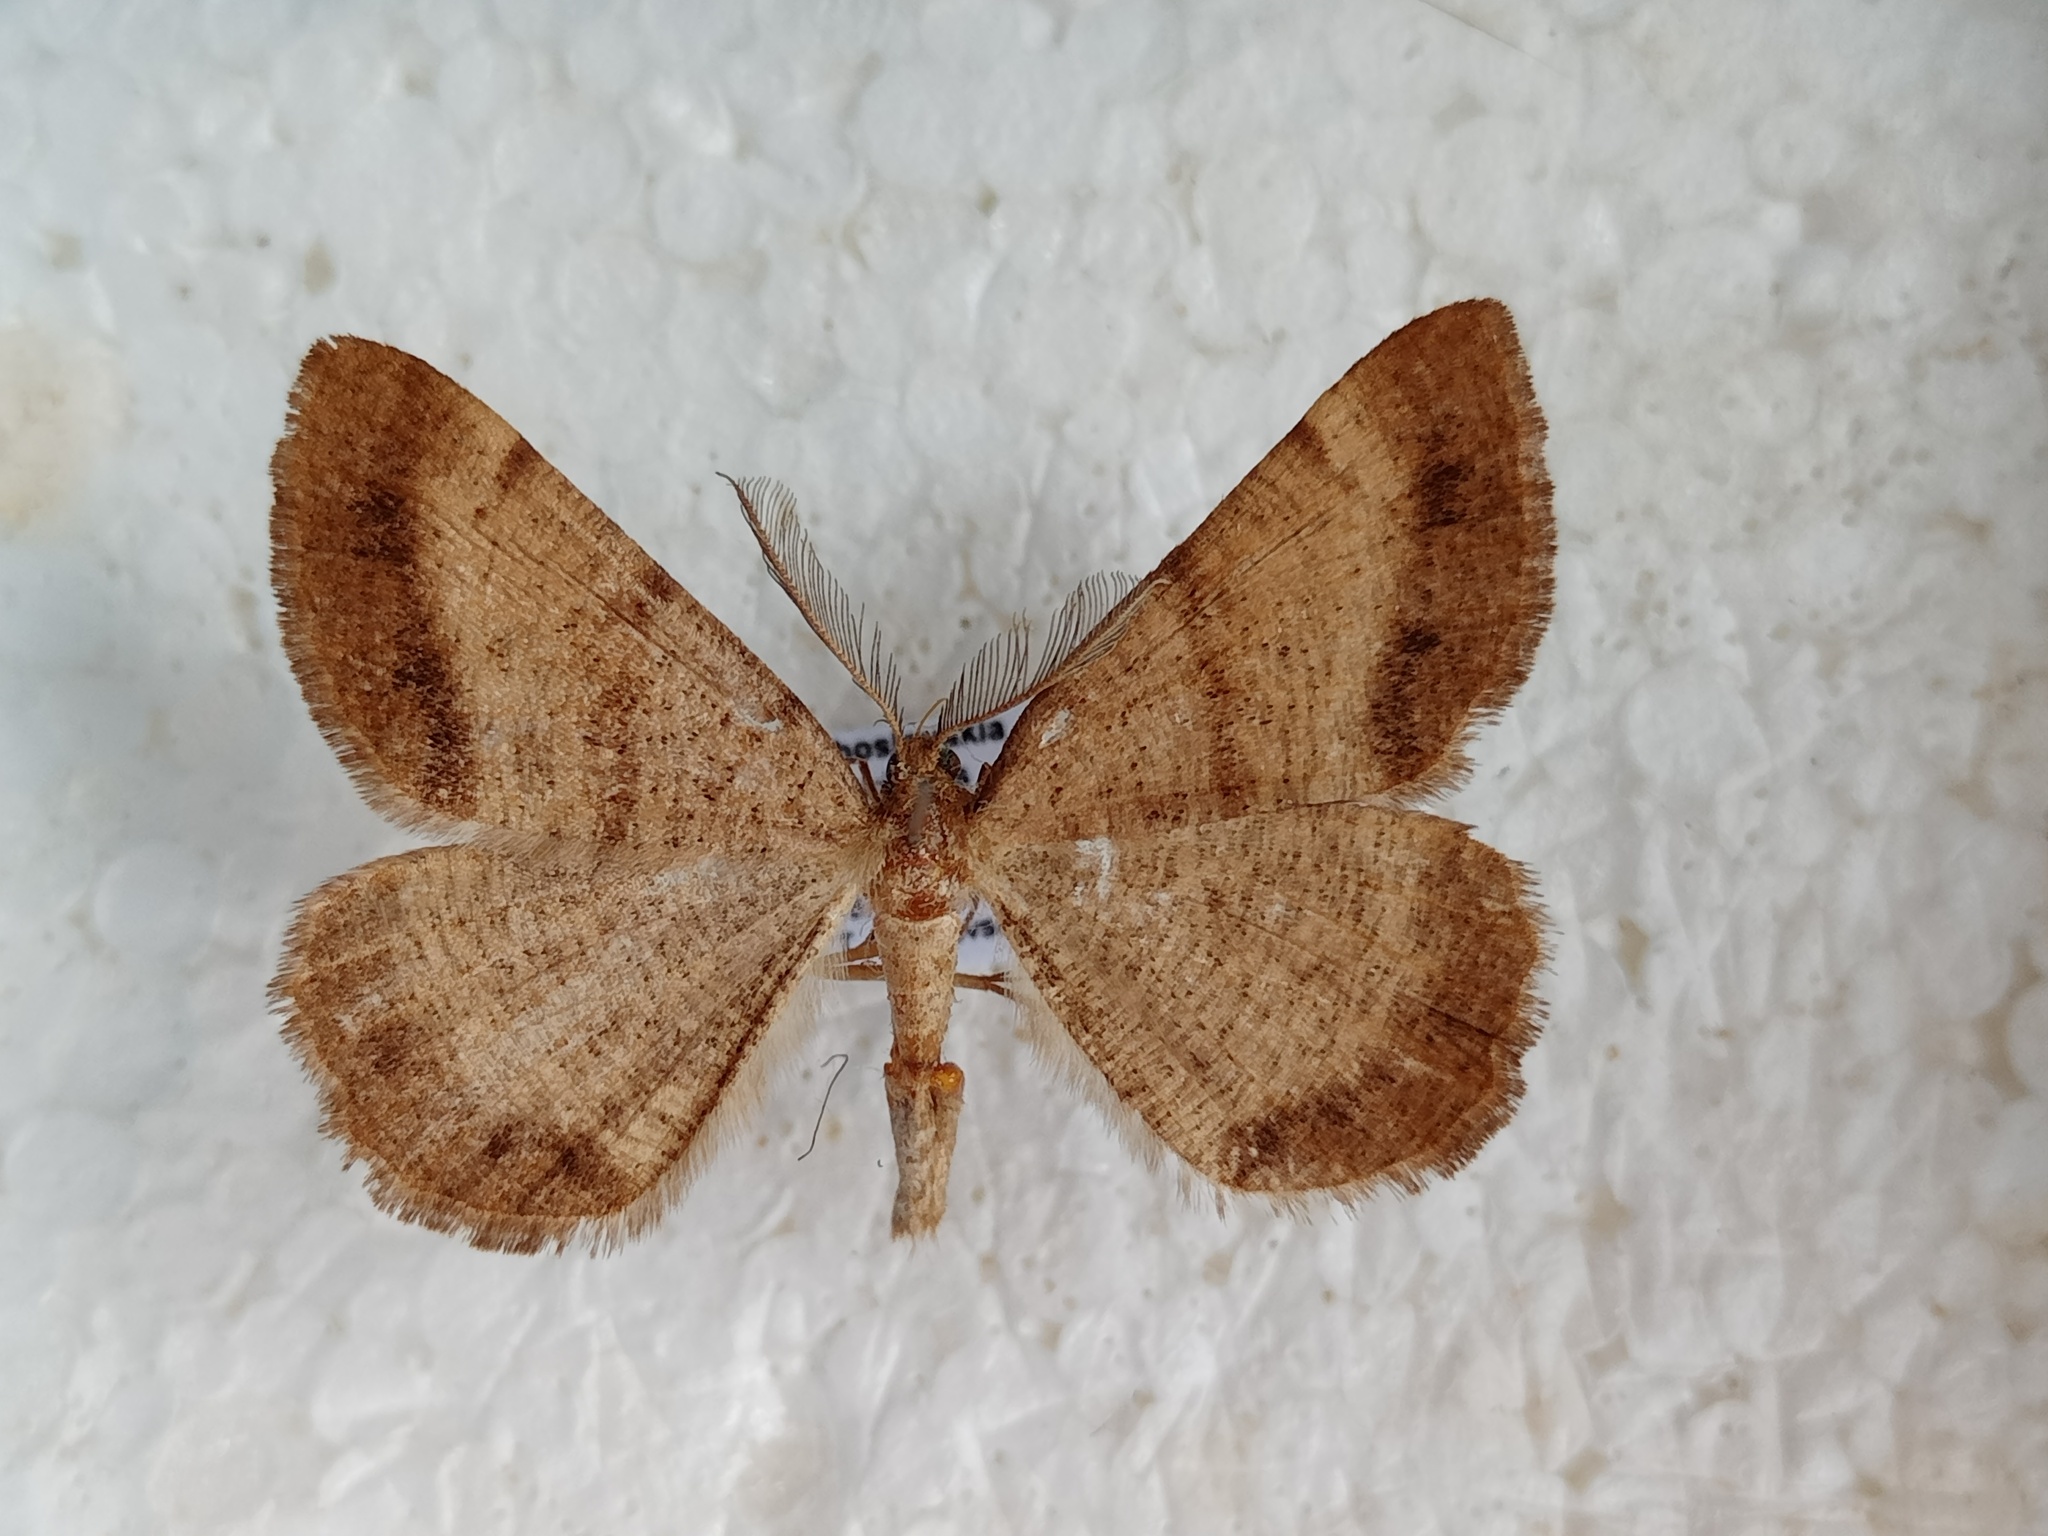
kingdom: Animalia
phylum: Arthropoda
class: Insecta
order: Lepidoptera
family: Geometridae
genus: Selidosema
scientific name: Selidosema brunnearia
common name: Bordered grey
